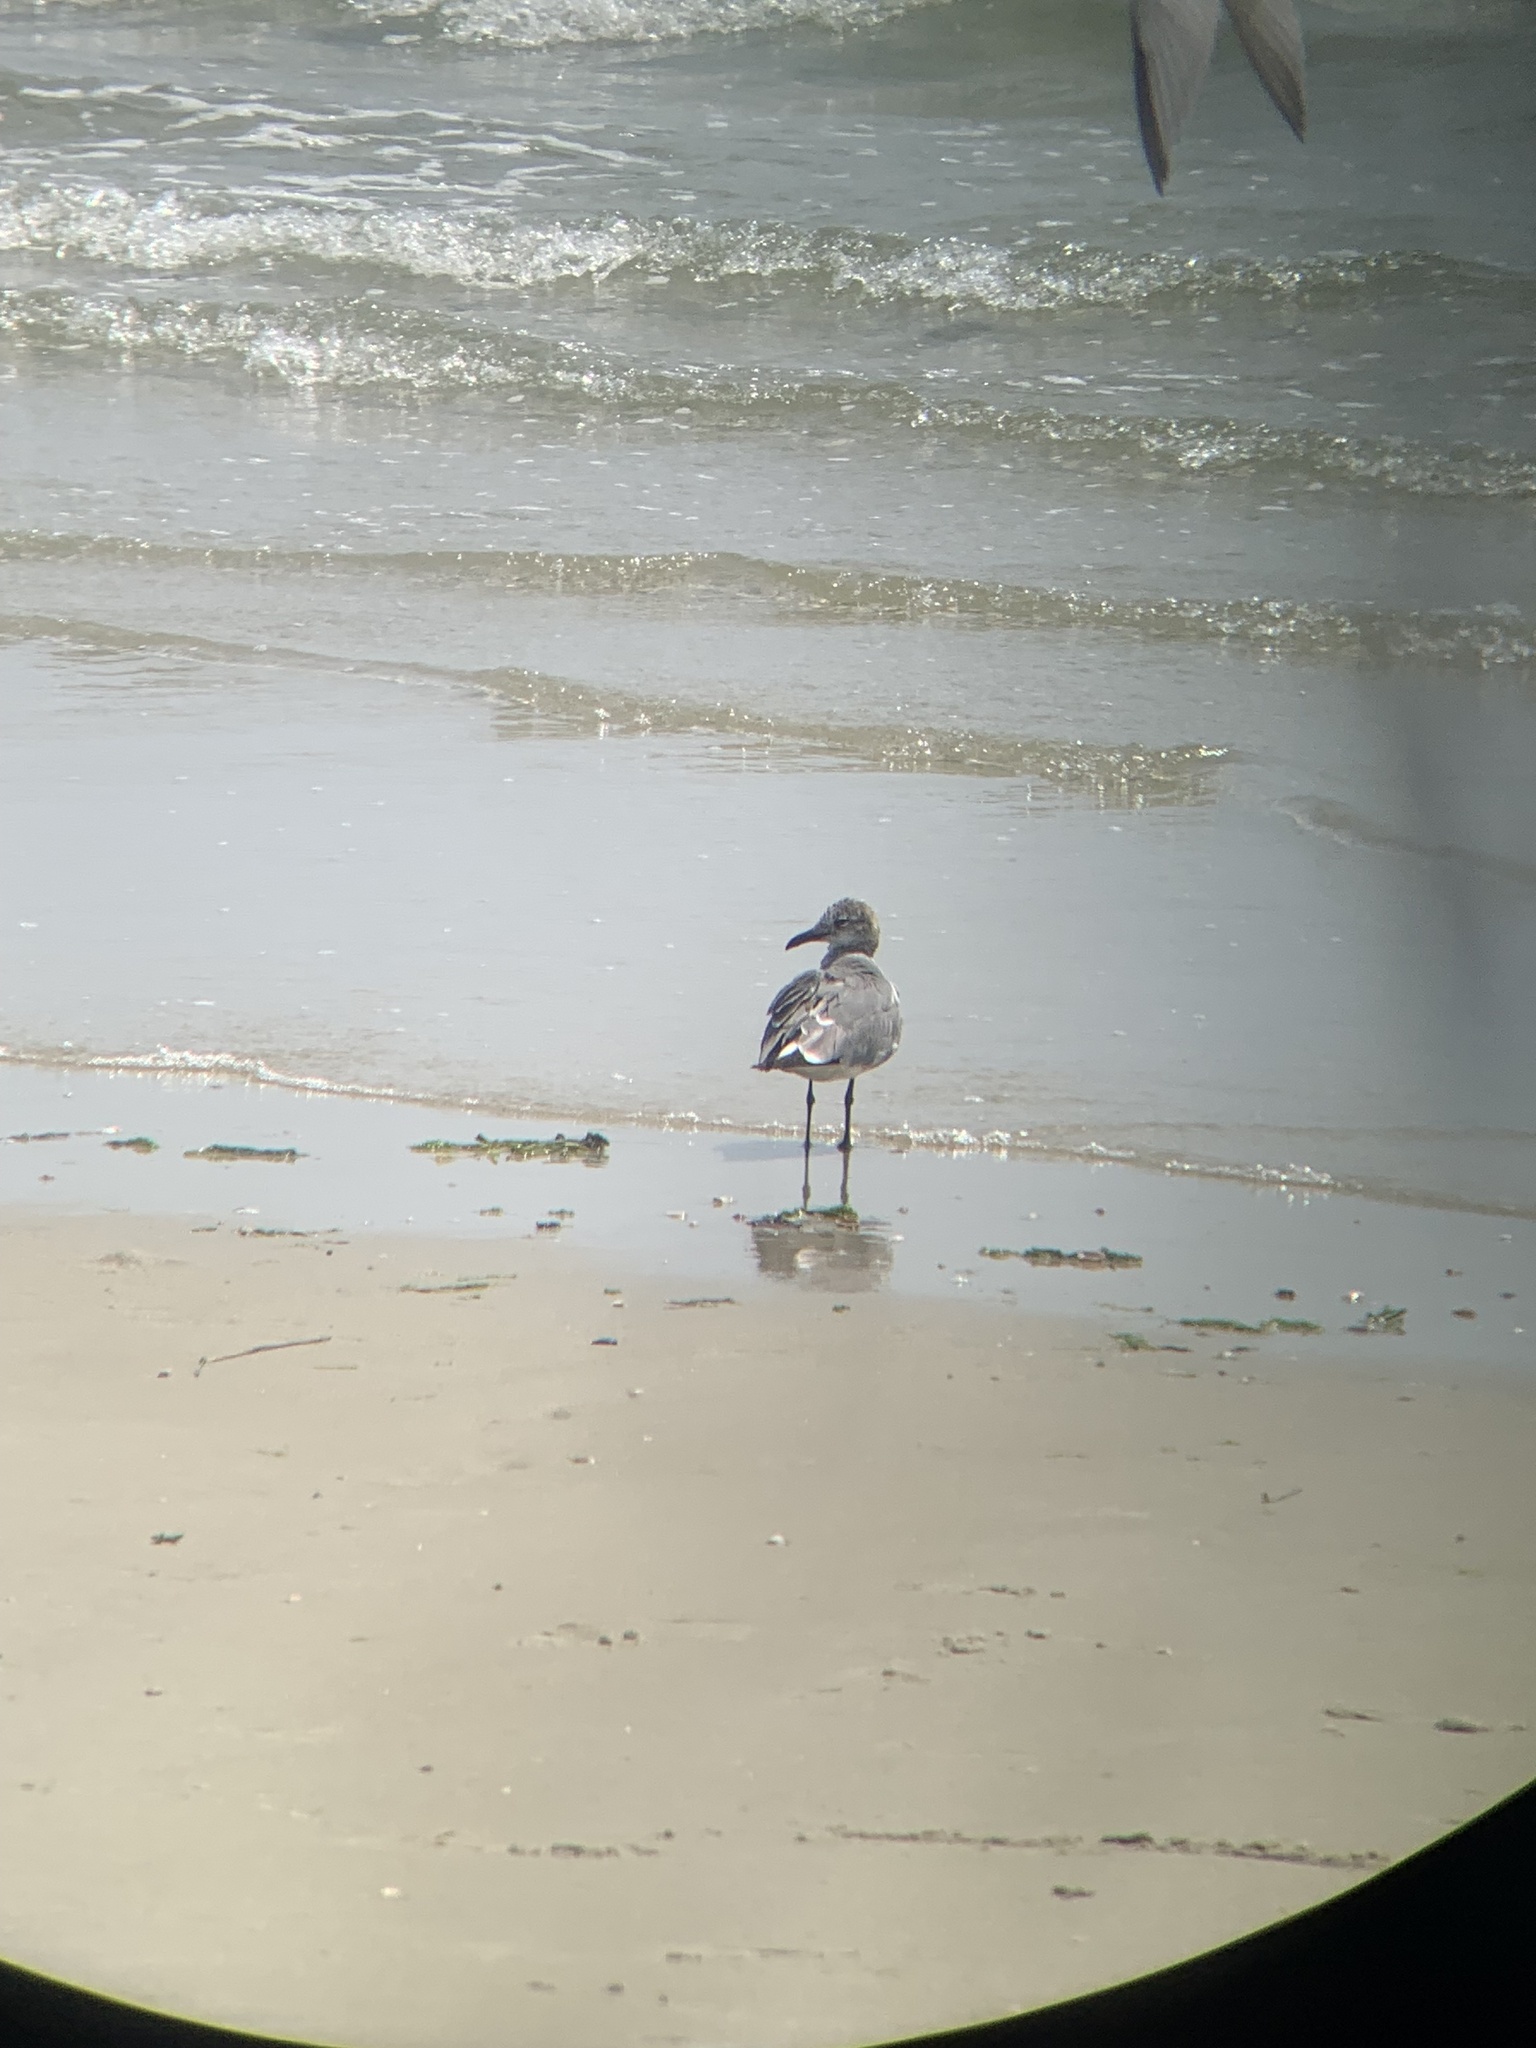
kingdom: Animalia
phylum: Chordata
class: Aves
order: Charadriiformes
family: Laridae
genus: Leucophaeus
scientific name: Leucophaeus atricilla
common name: Laughing gull
